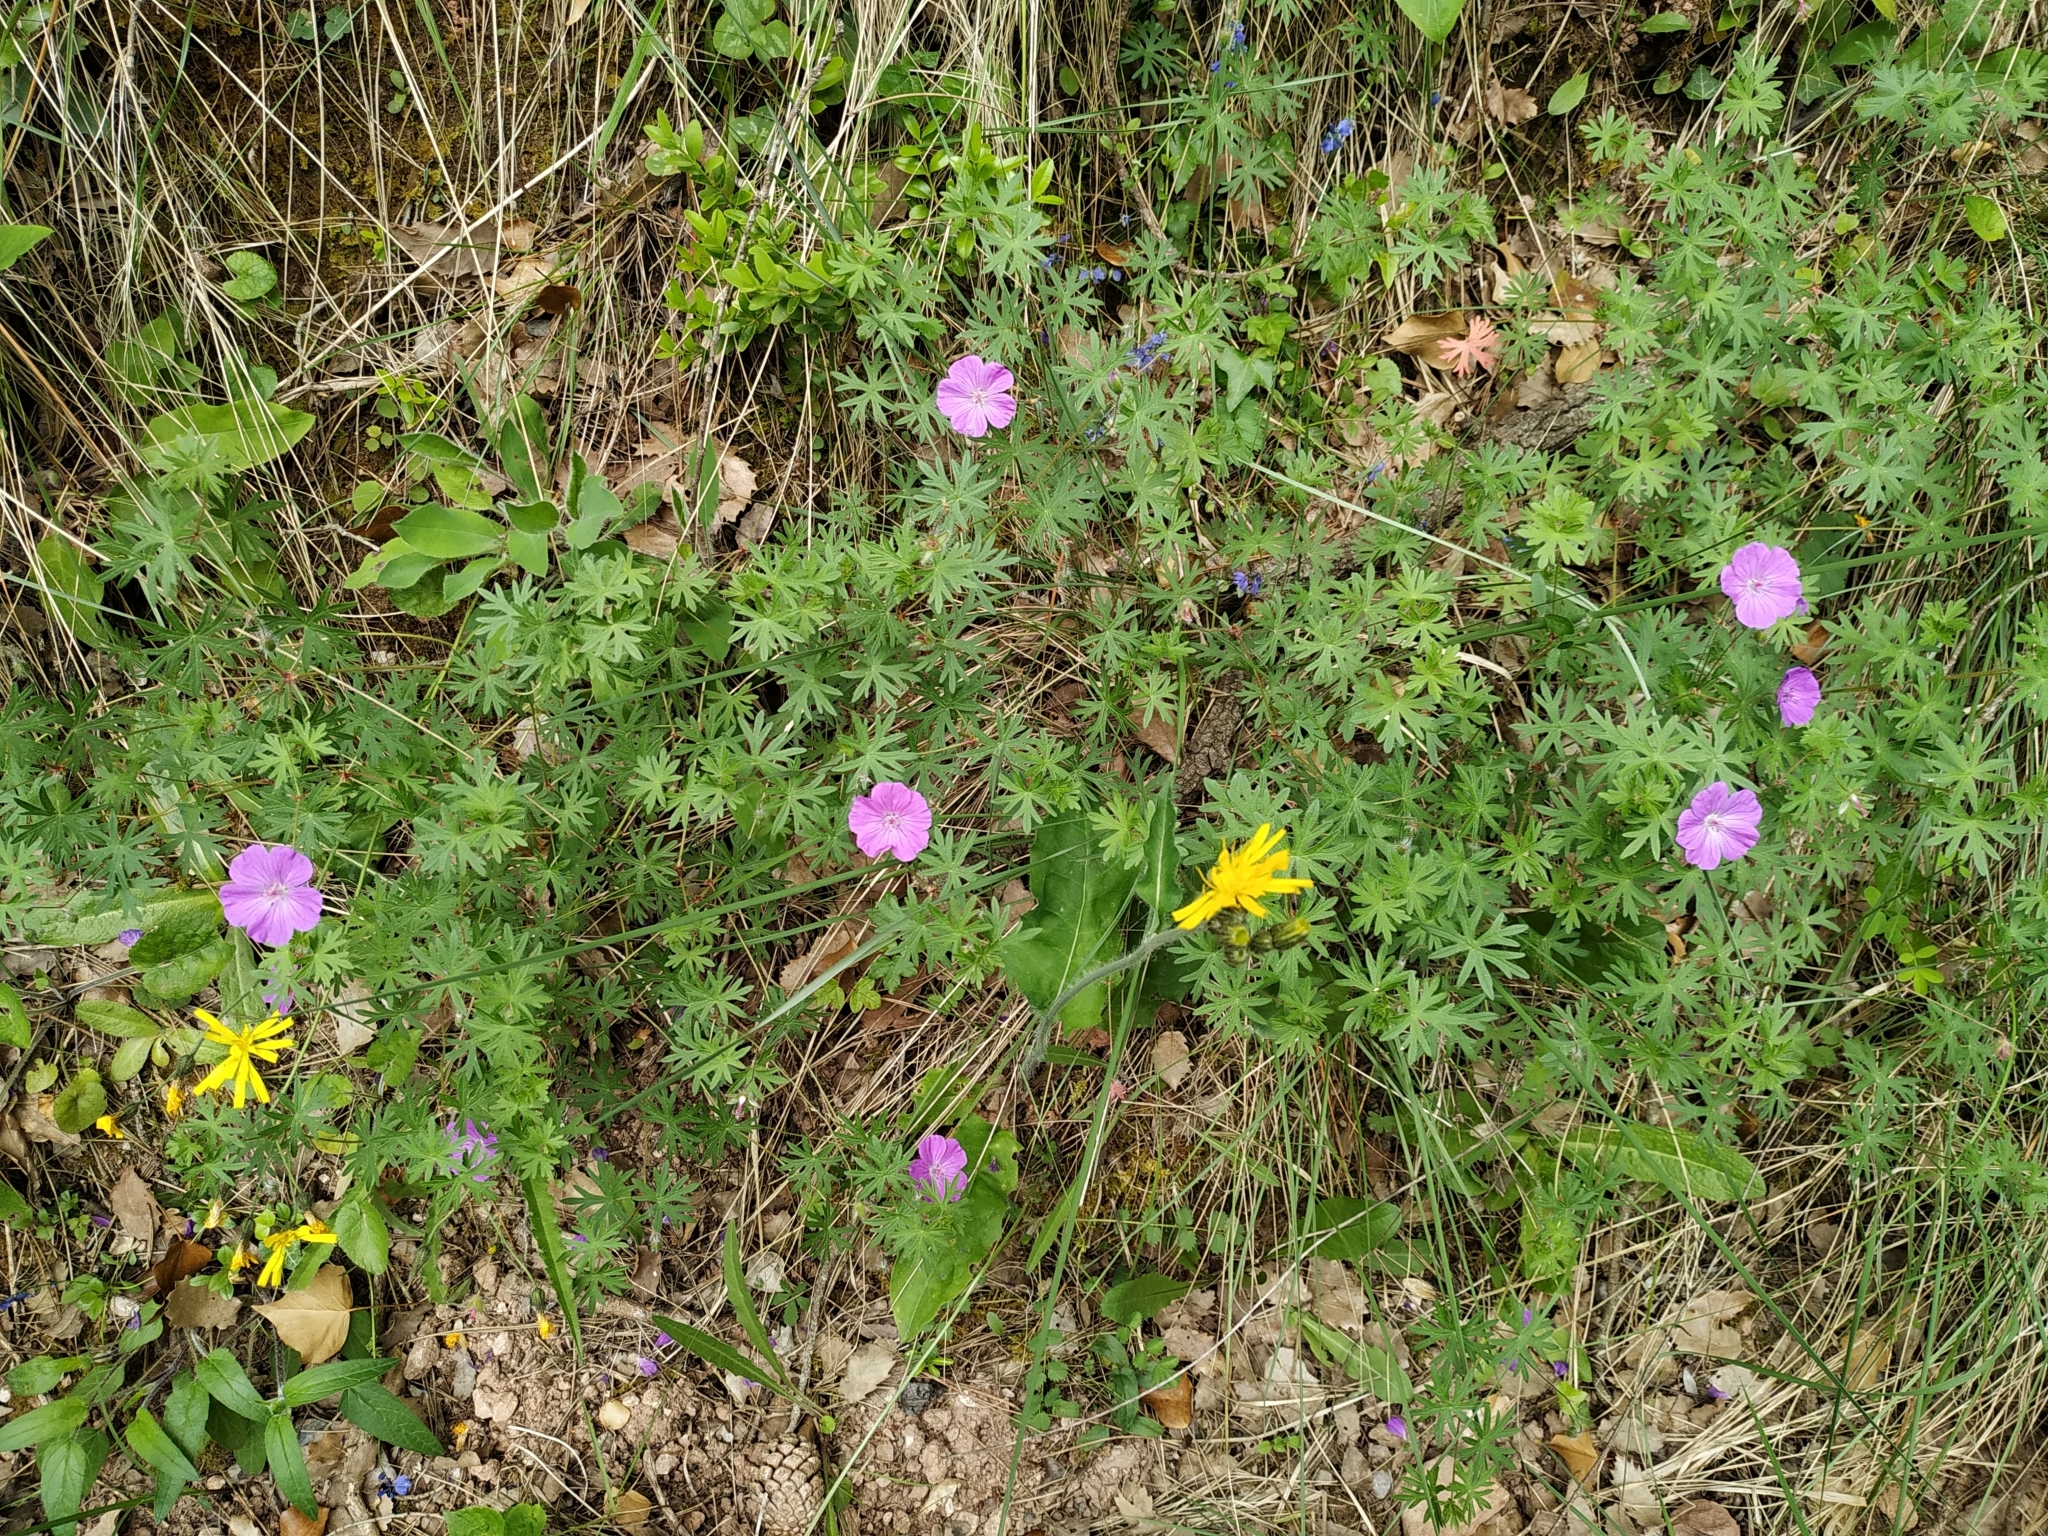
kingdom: Plantae
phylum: Tracheophyta
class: Magnoliopsida
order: Geraniales
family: Geraniaceae
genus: Geranium
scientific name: Geranium sanguineum
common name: Bloody crane's-bill
